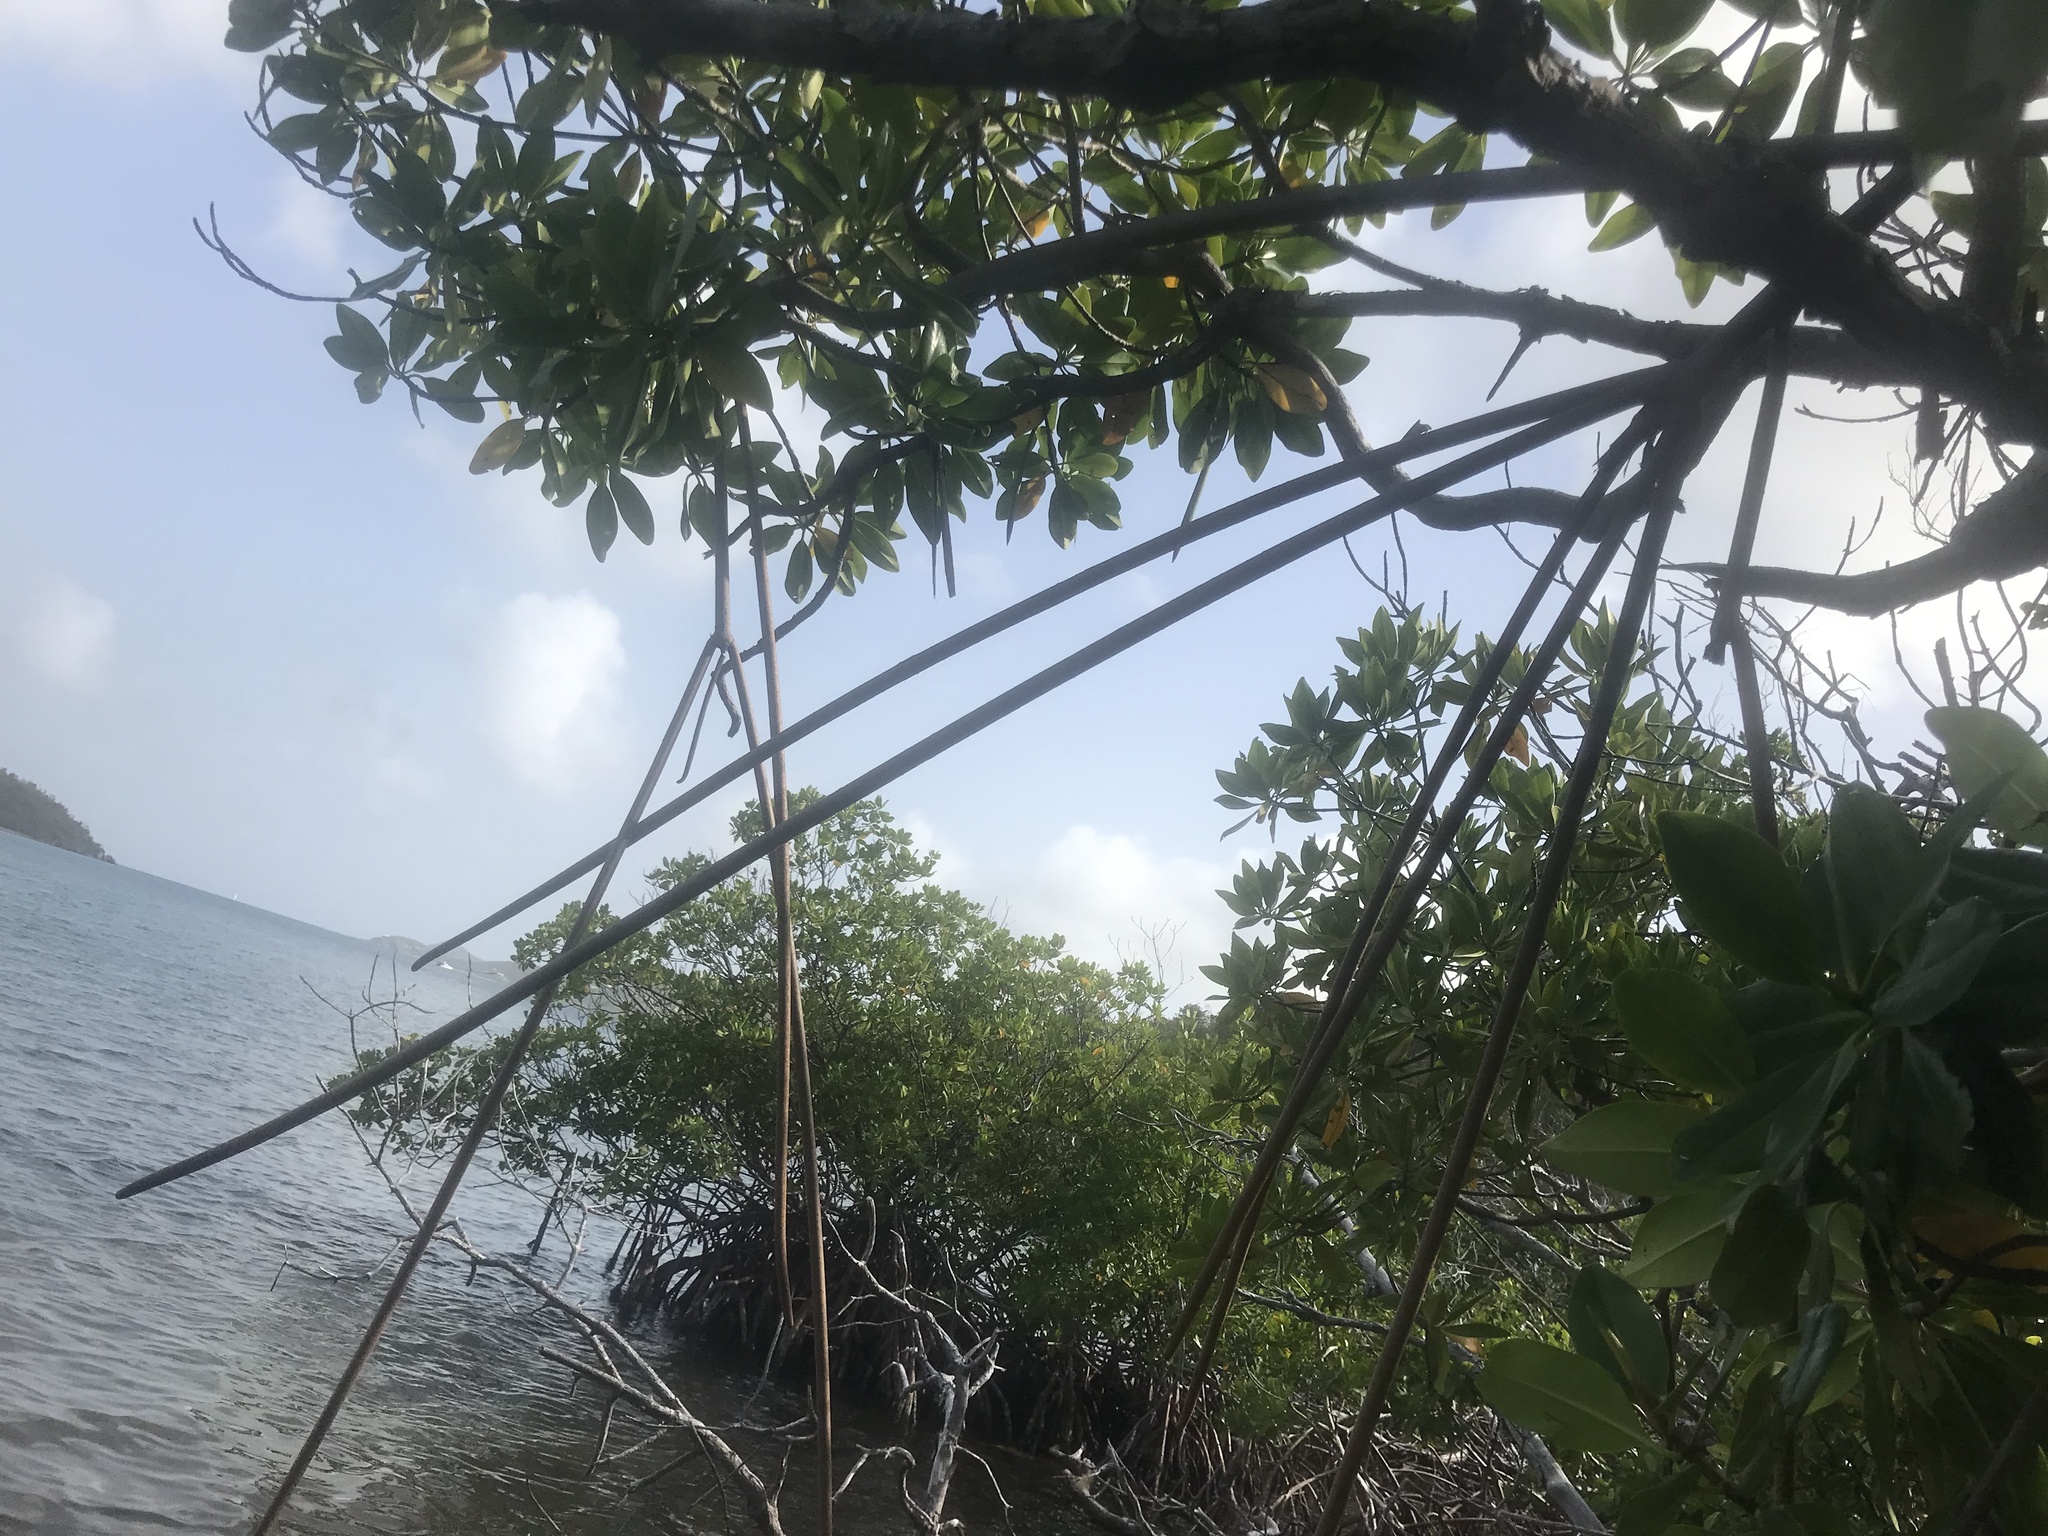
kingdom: Plantae
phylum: Tracheophyta
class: Magnoliopsida
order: Malpighiales
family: Rhizophoraceae
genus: Rhizophora
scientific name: Rhizophora mangle
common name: Red mangrove
